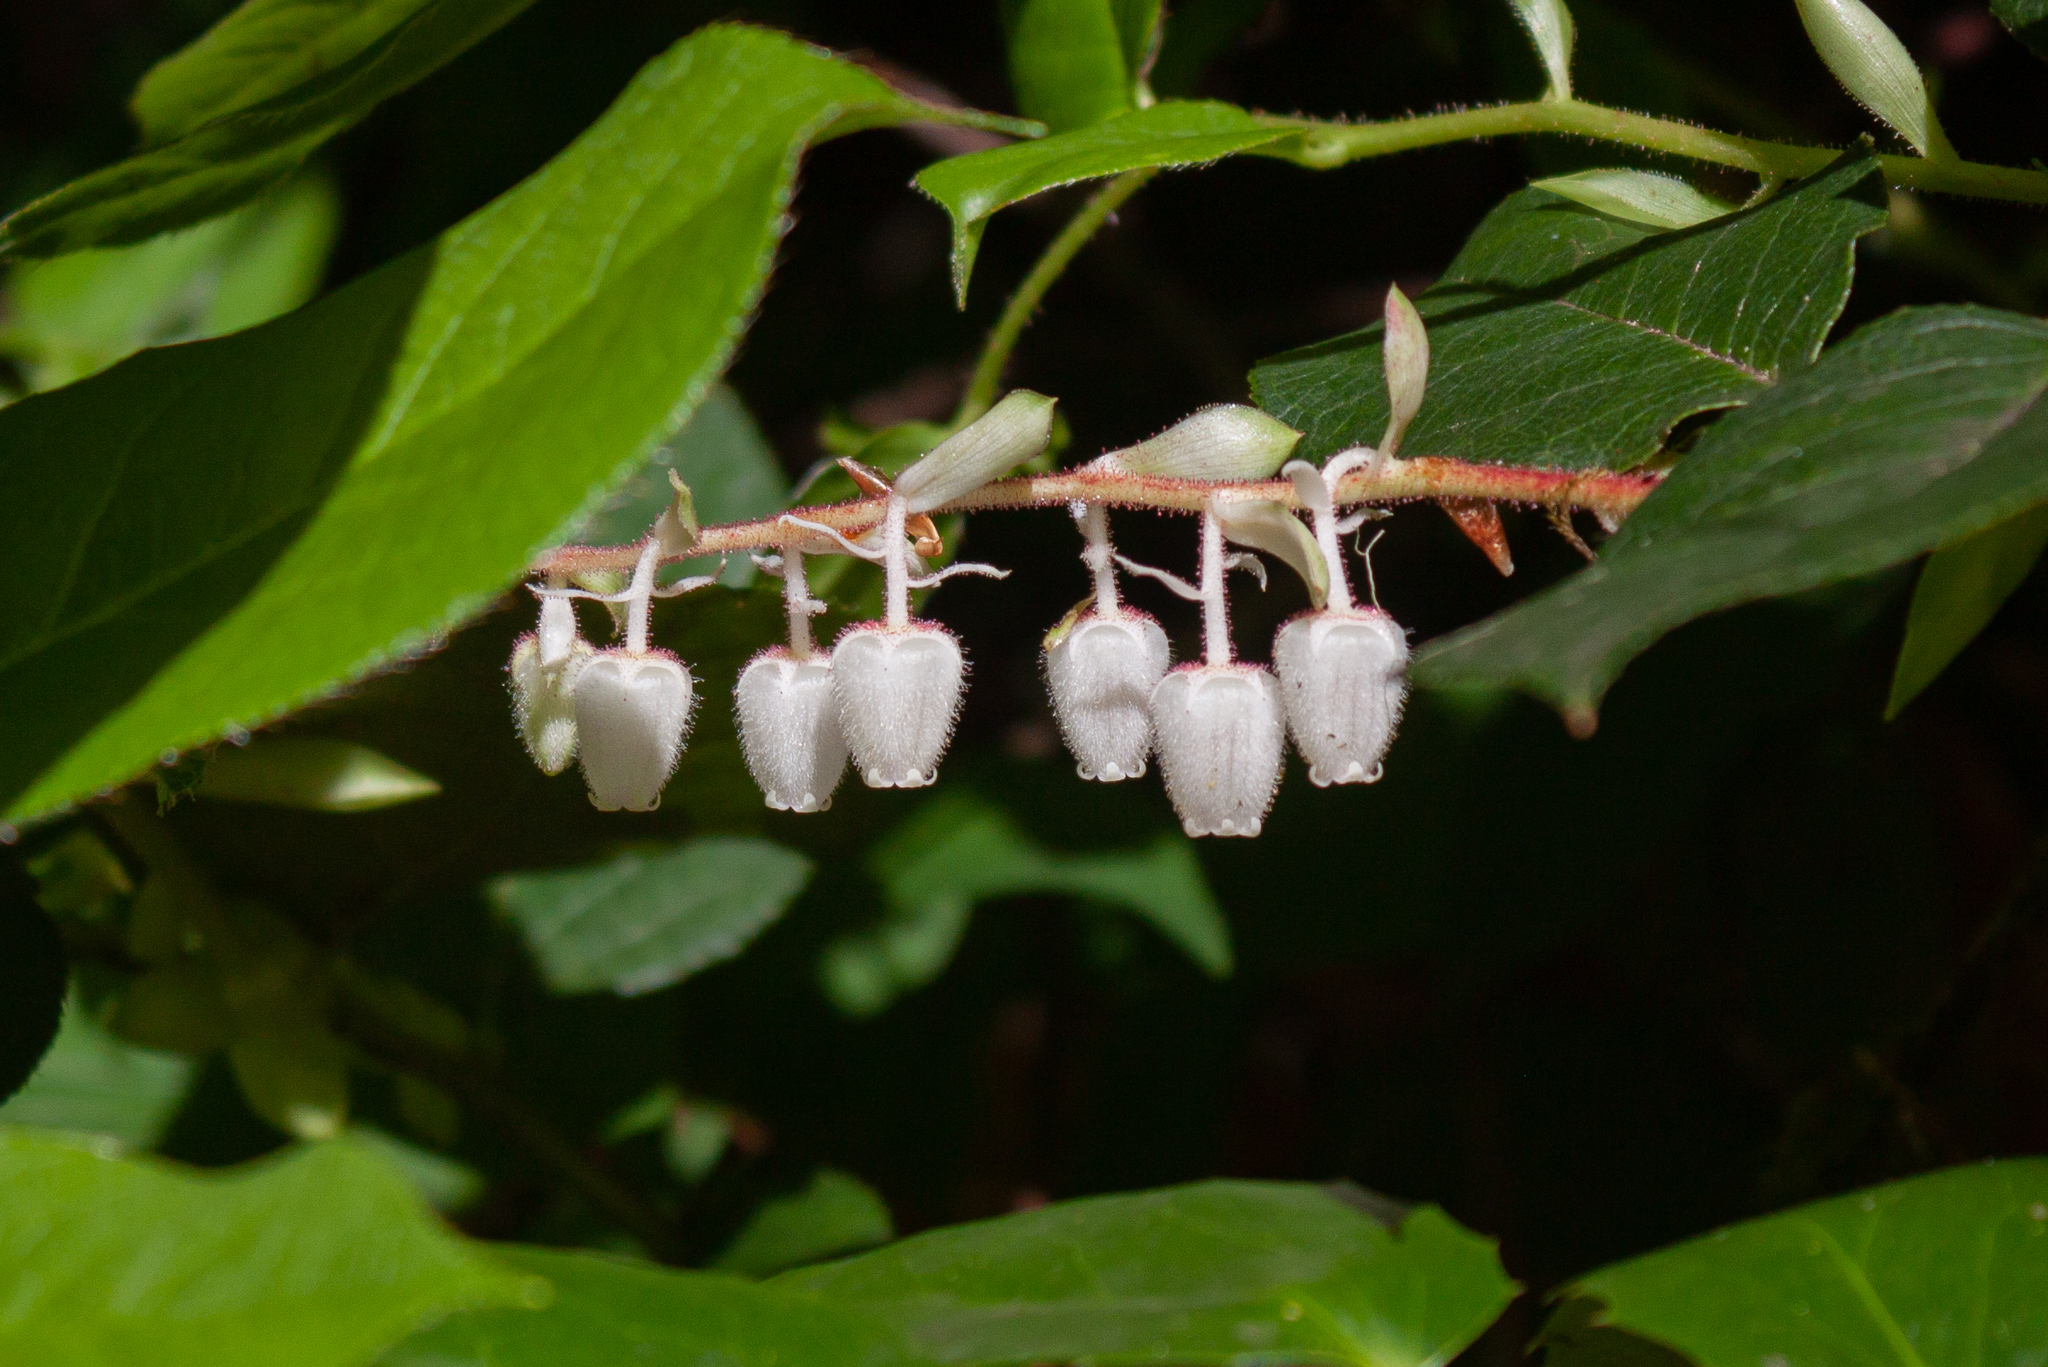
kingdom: Plantae
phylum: Tracheophyta
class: Magnoliopsida
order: Ericales
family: Ericaceae
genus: Gaultheria
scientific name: Gaultheria shallon
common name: Shallon
